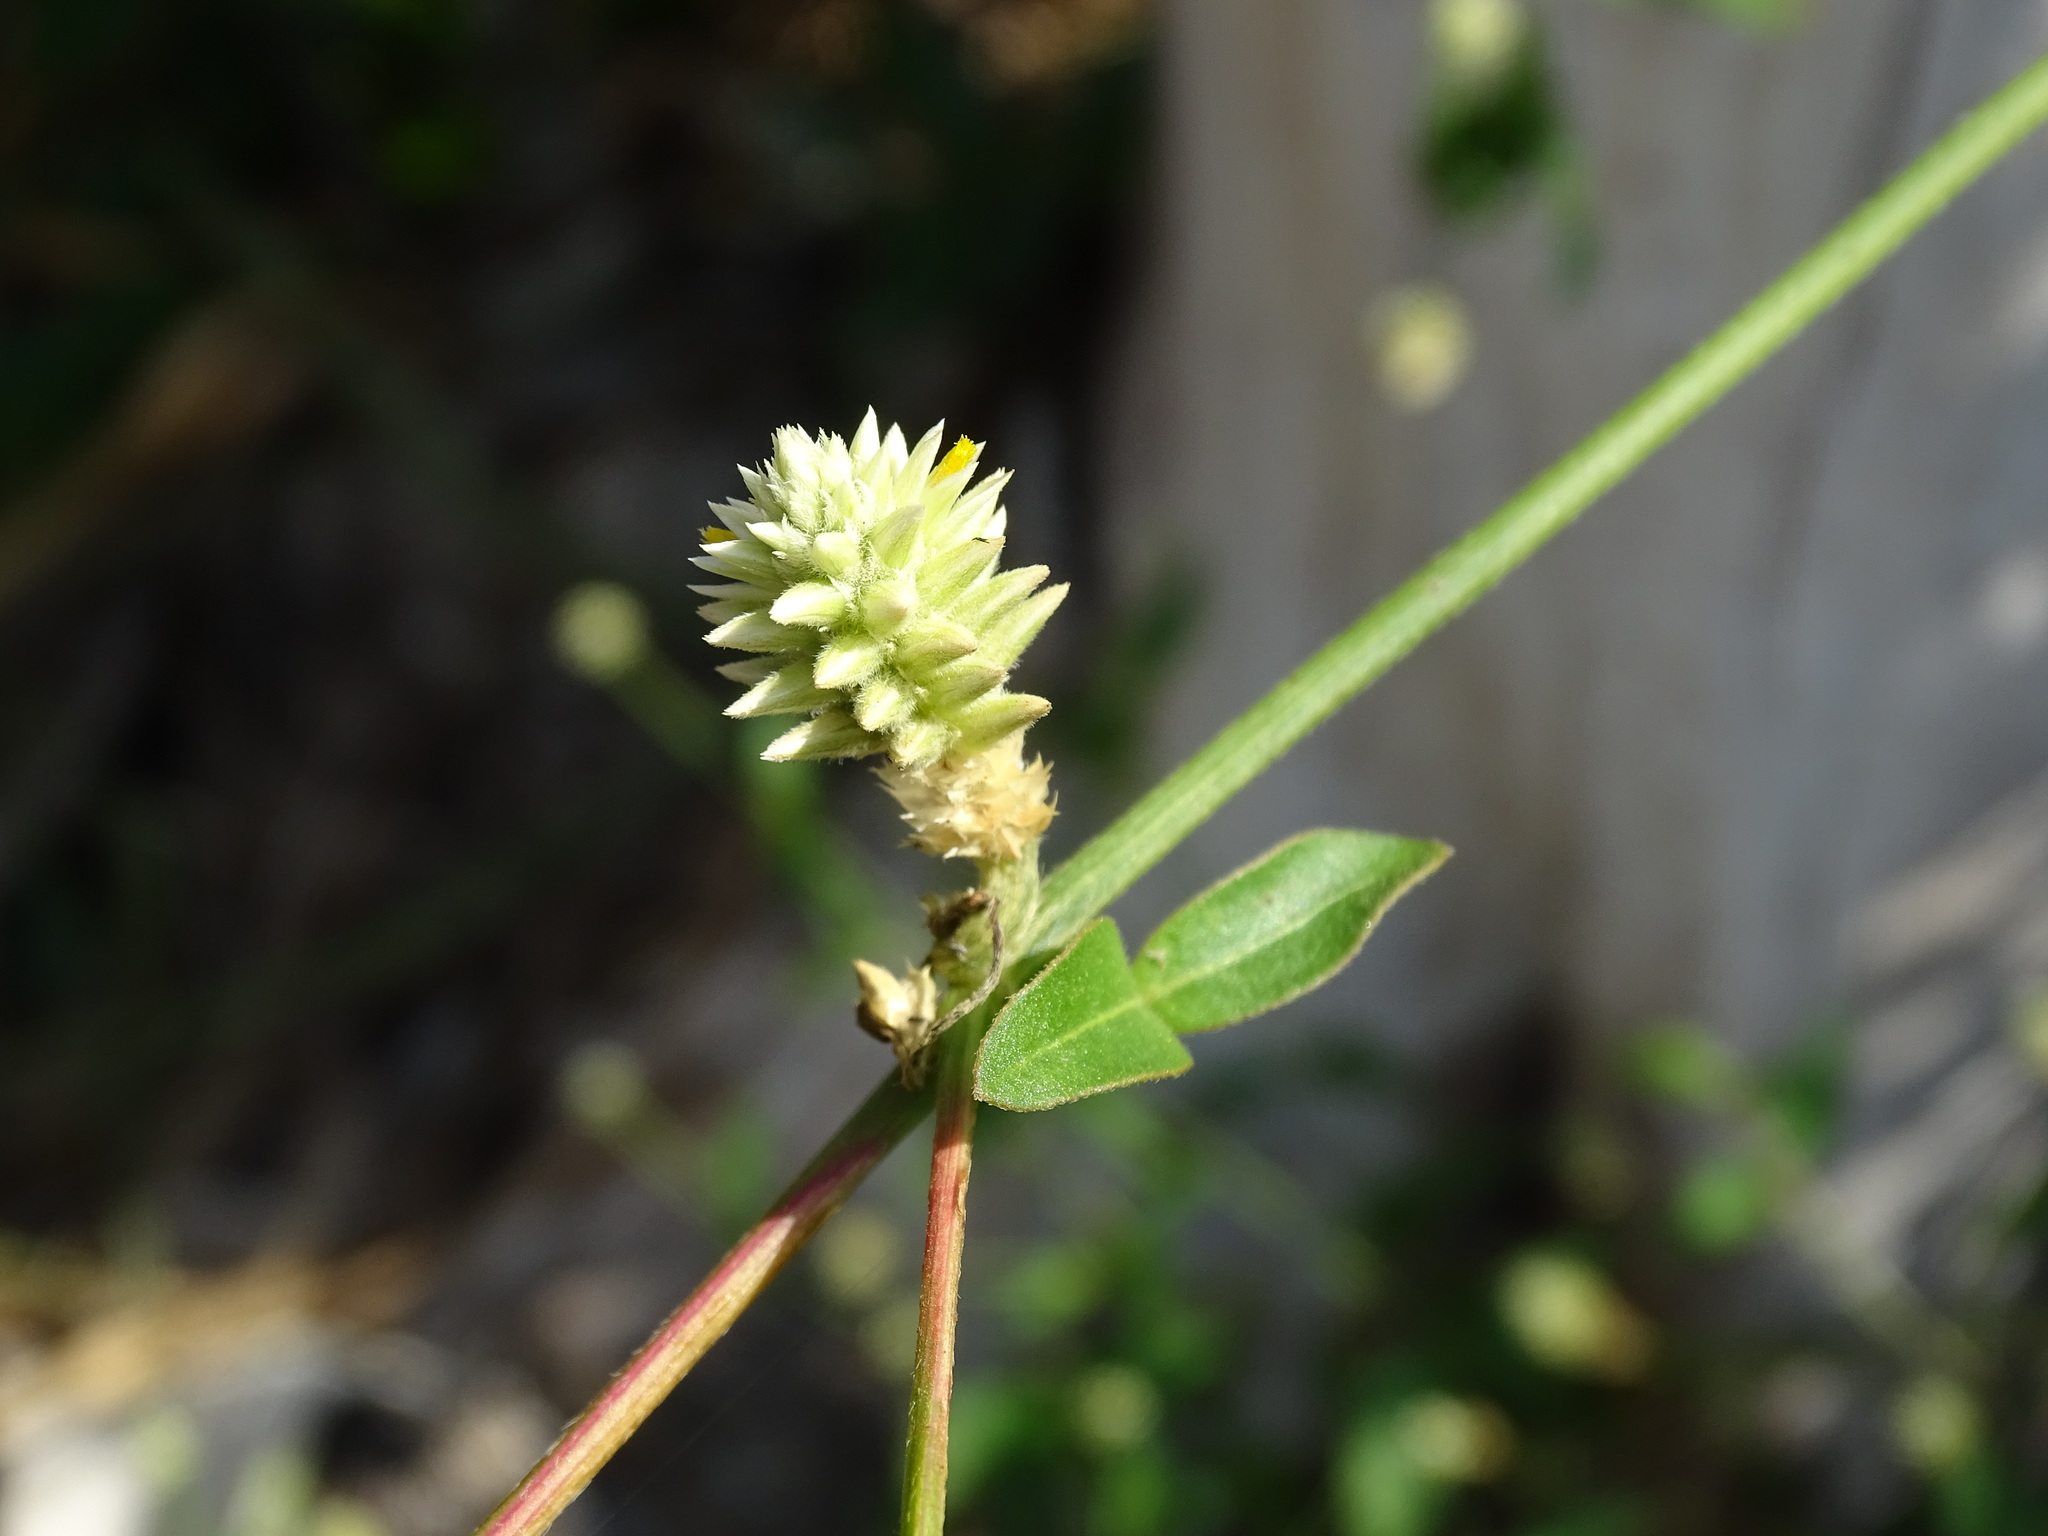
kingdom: Plantae
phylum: Tracheophyta
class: Magnoliopsida
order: Caryophyllales
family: Amaranthaceae
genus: Alternanthera
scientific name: Alternanthera flavescens
